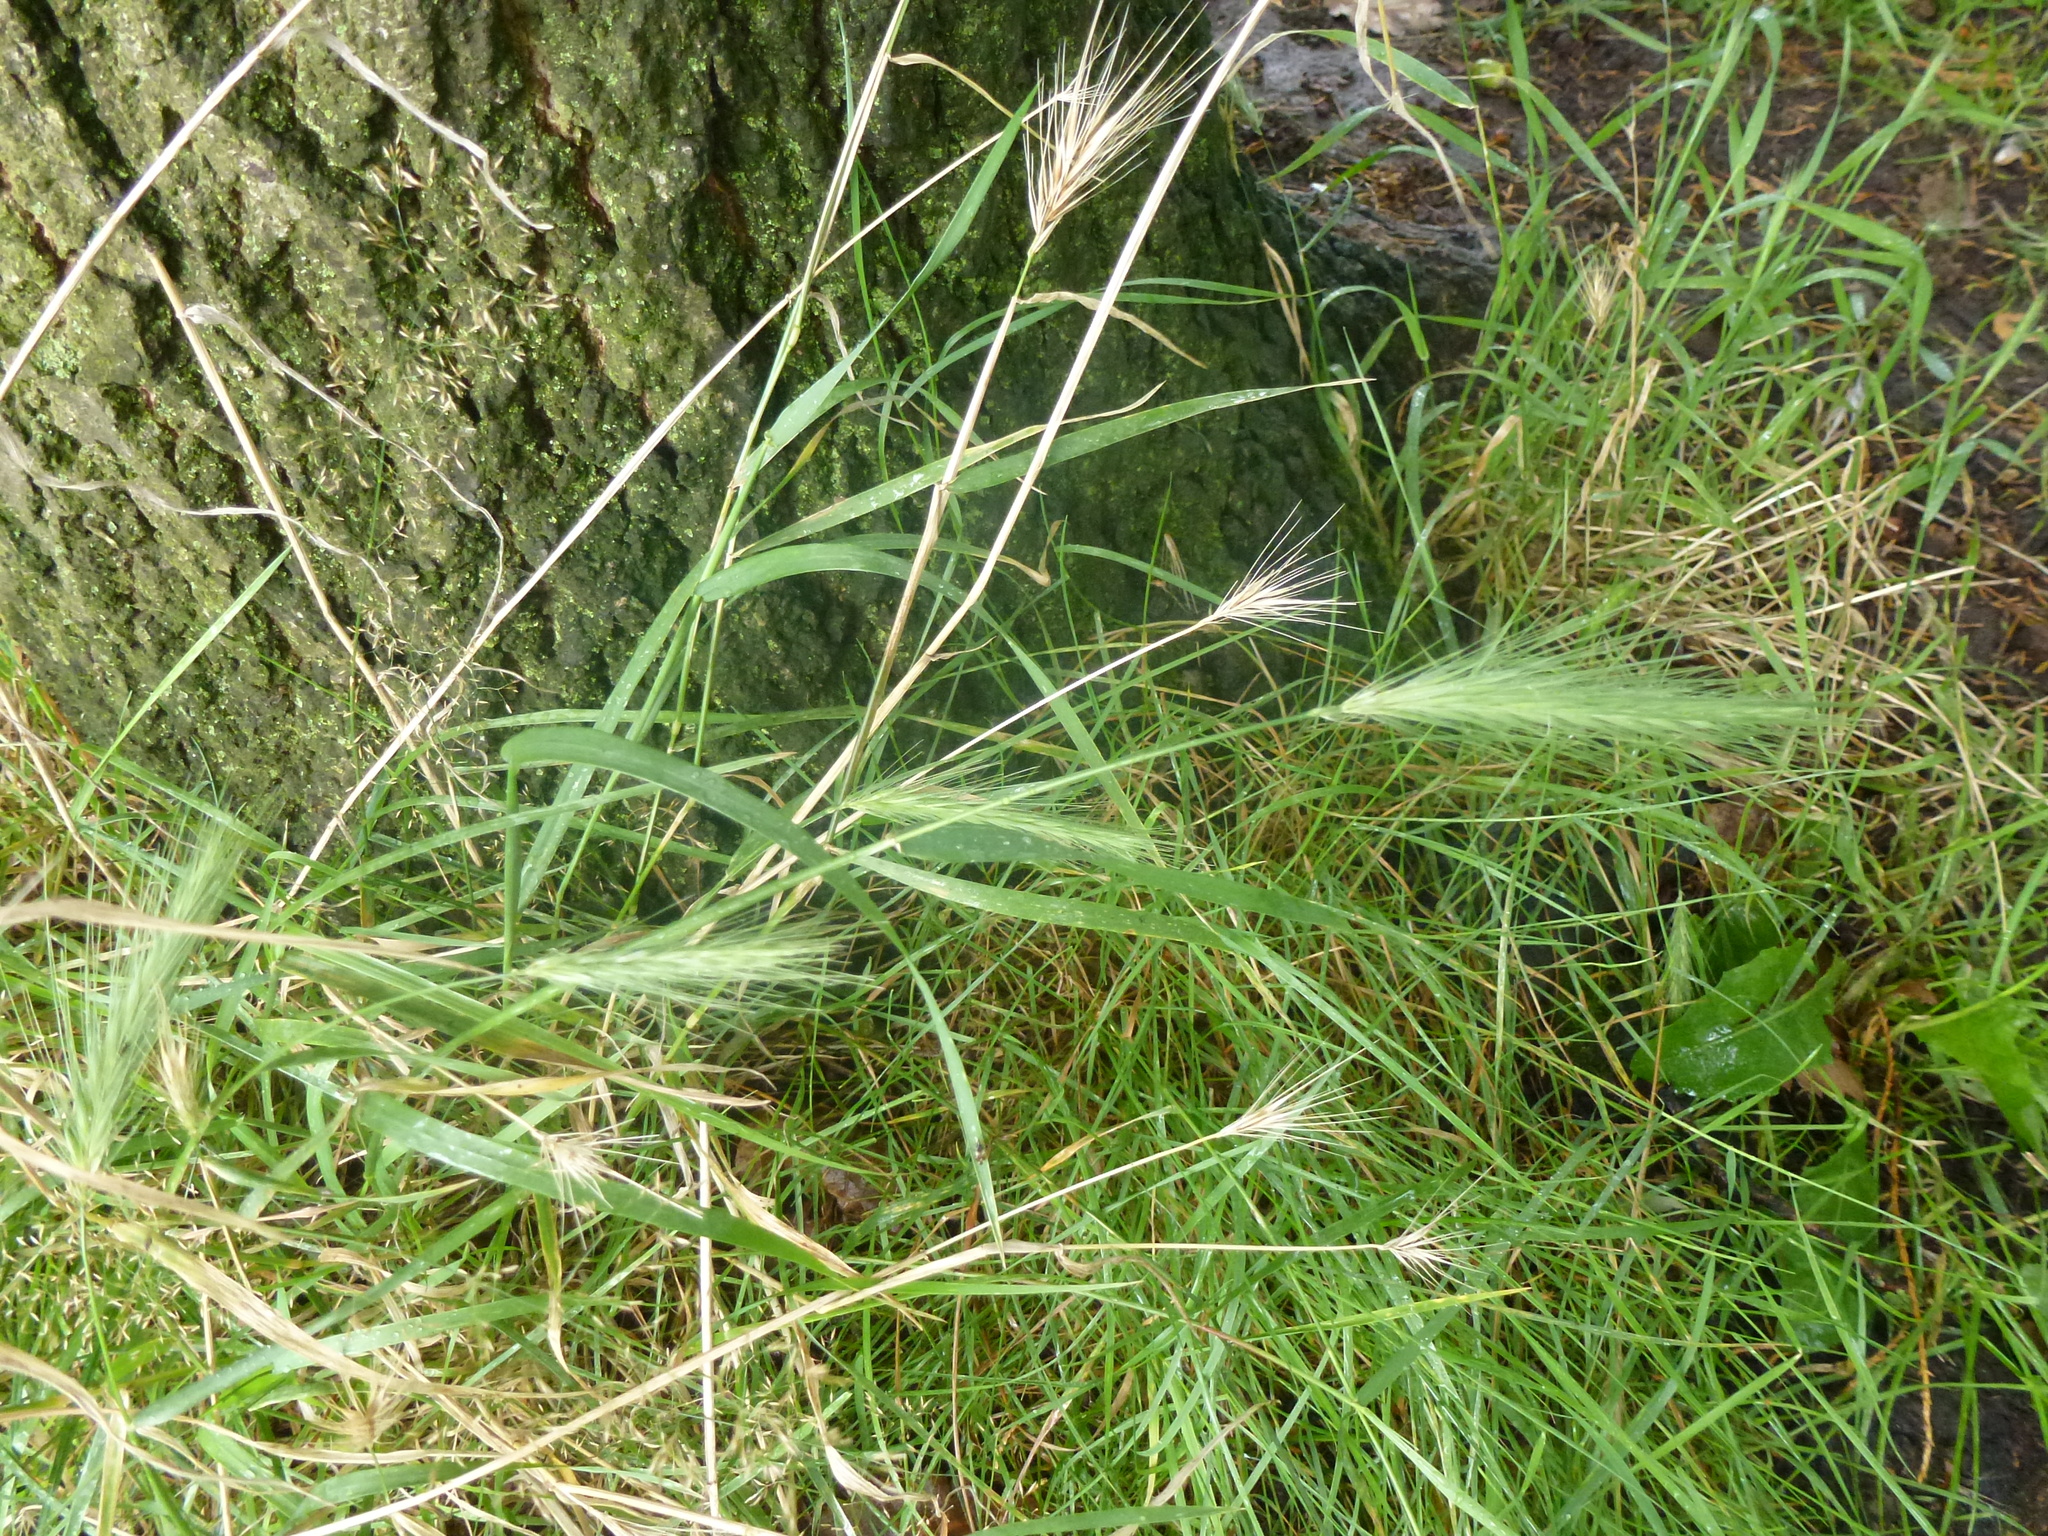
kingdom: Plantae
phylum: Tracheophyta
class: Liliopsida
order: Poales
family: Poaceae
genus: Hordeum
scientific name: Hordeum murinum
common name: Wall barley
